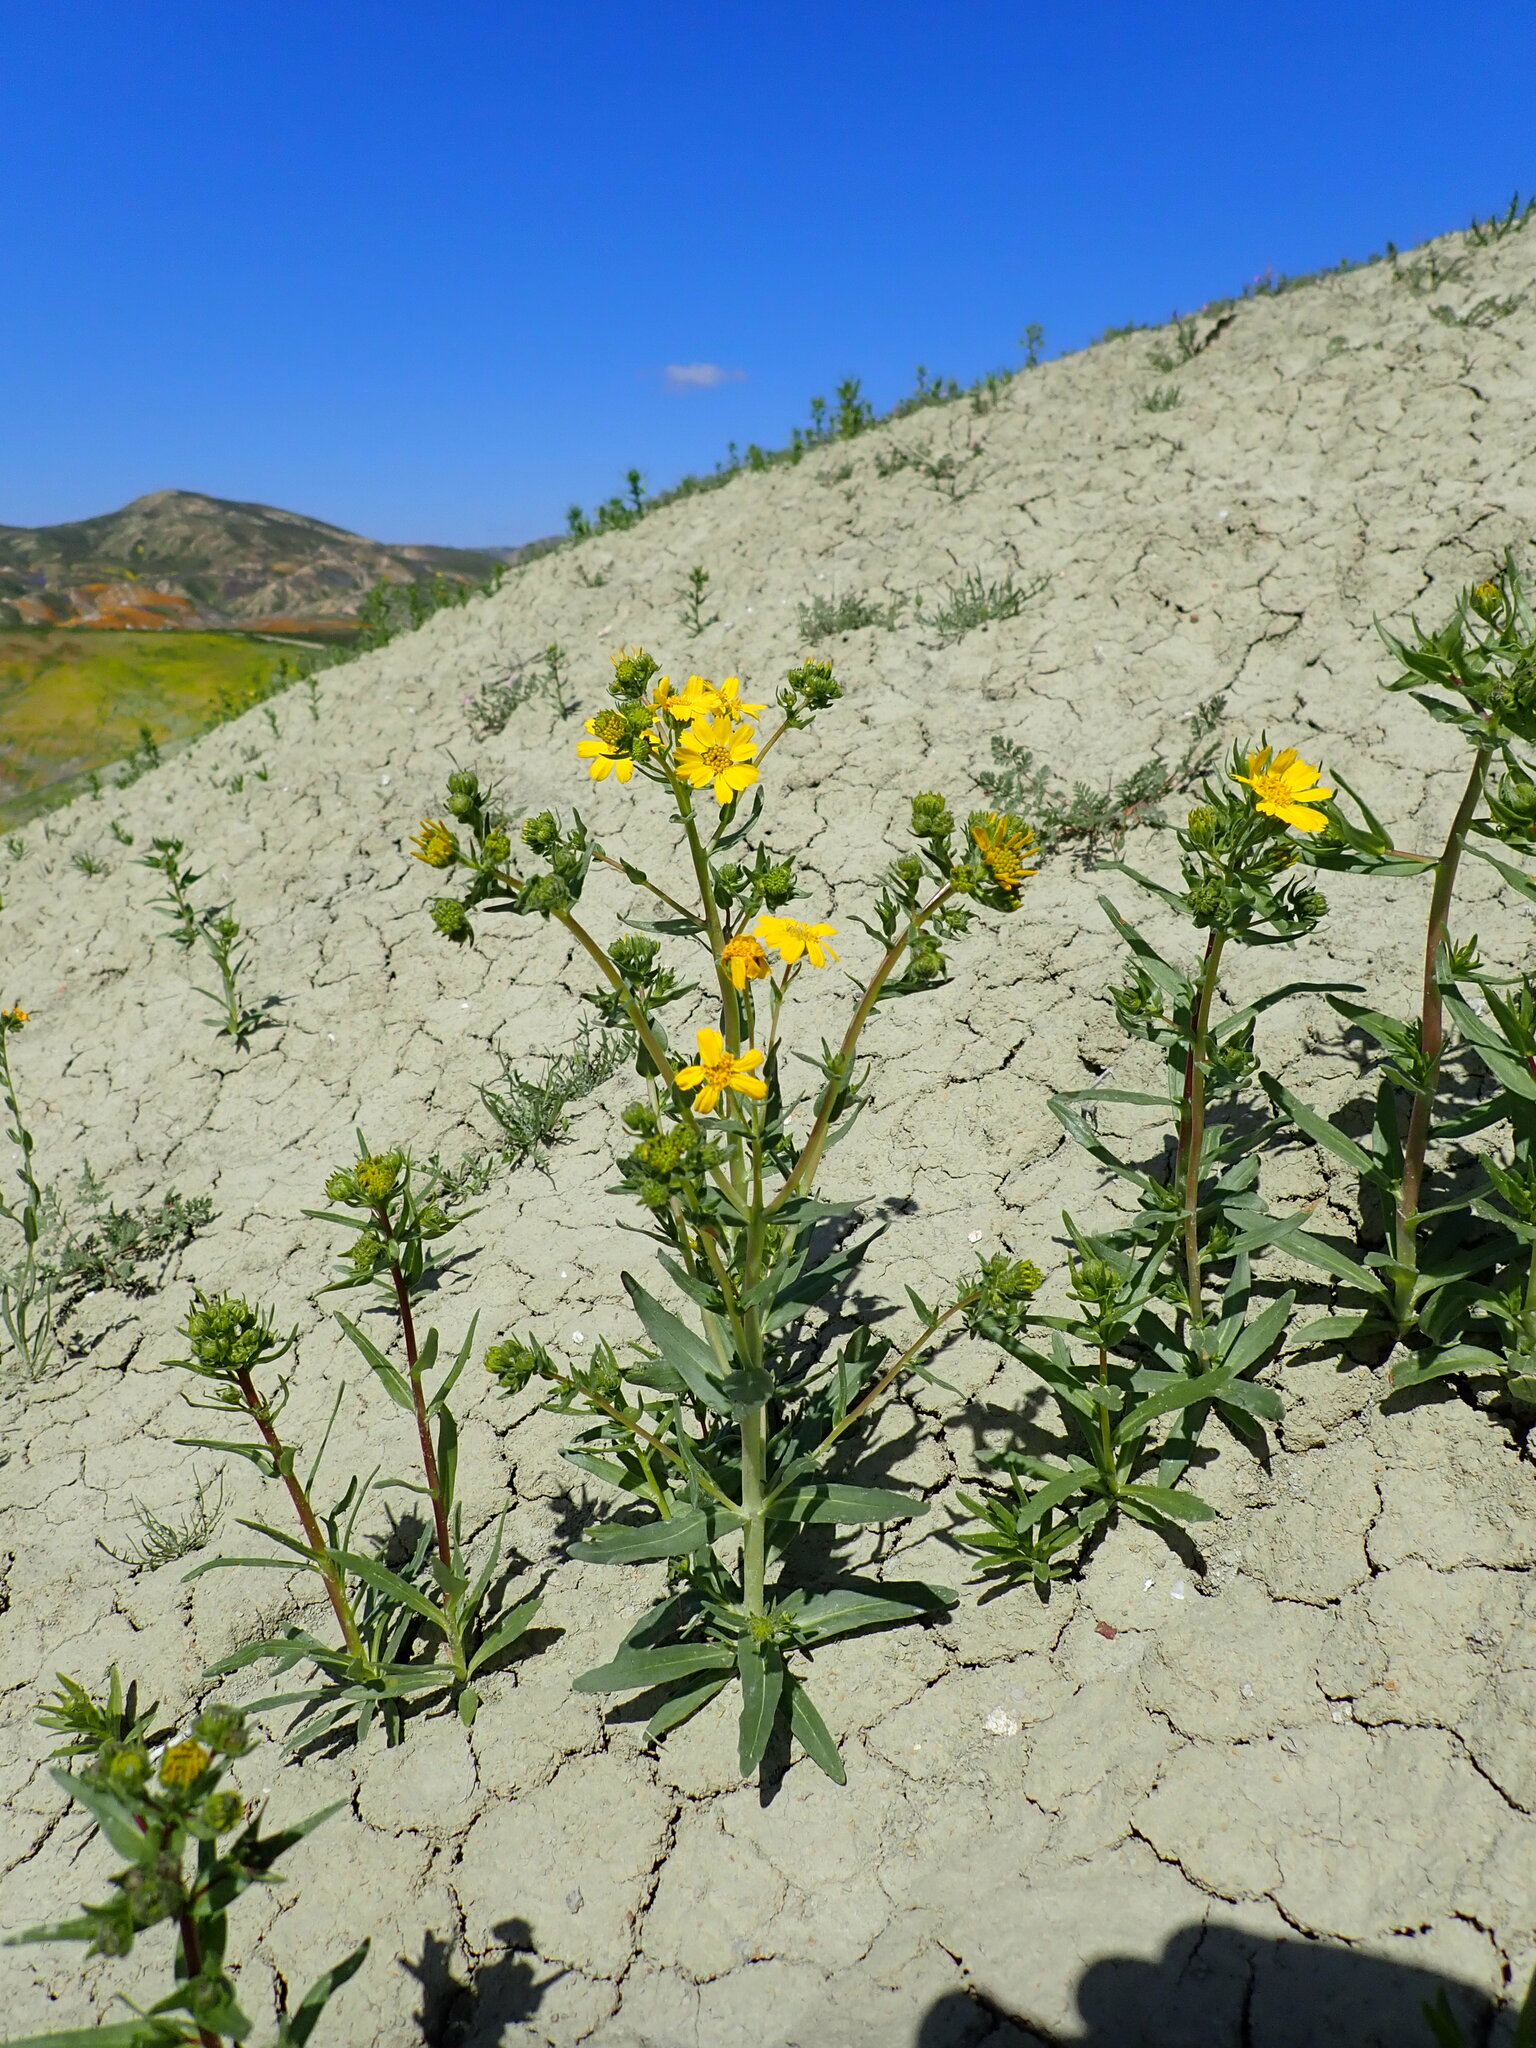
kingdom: Plantae
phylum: Tracheophyta
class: Magnoliopsida
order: Asterales
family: Asteraceae
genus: Deinandra
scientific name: Deinandra halliana
